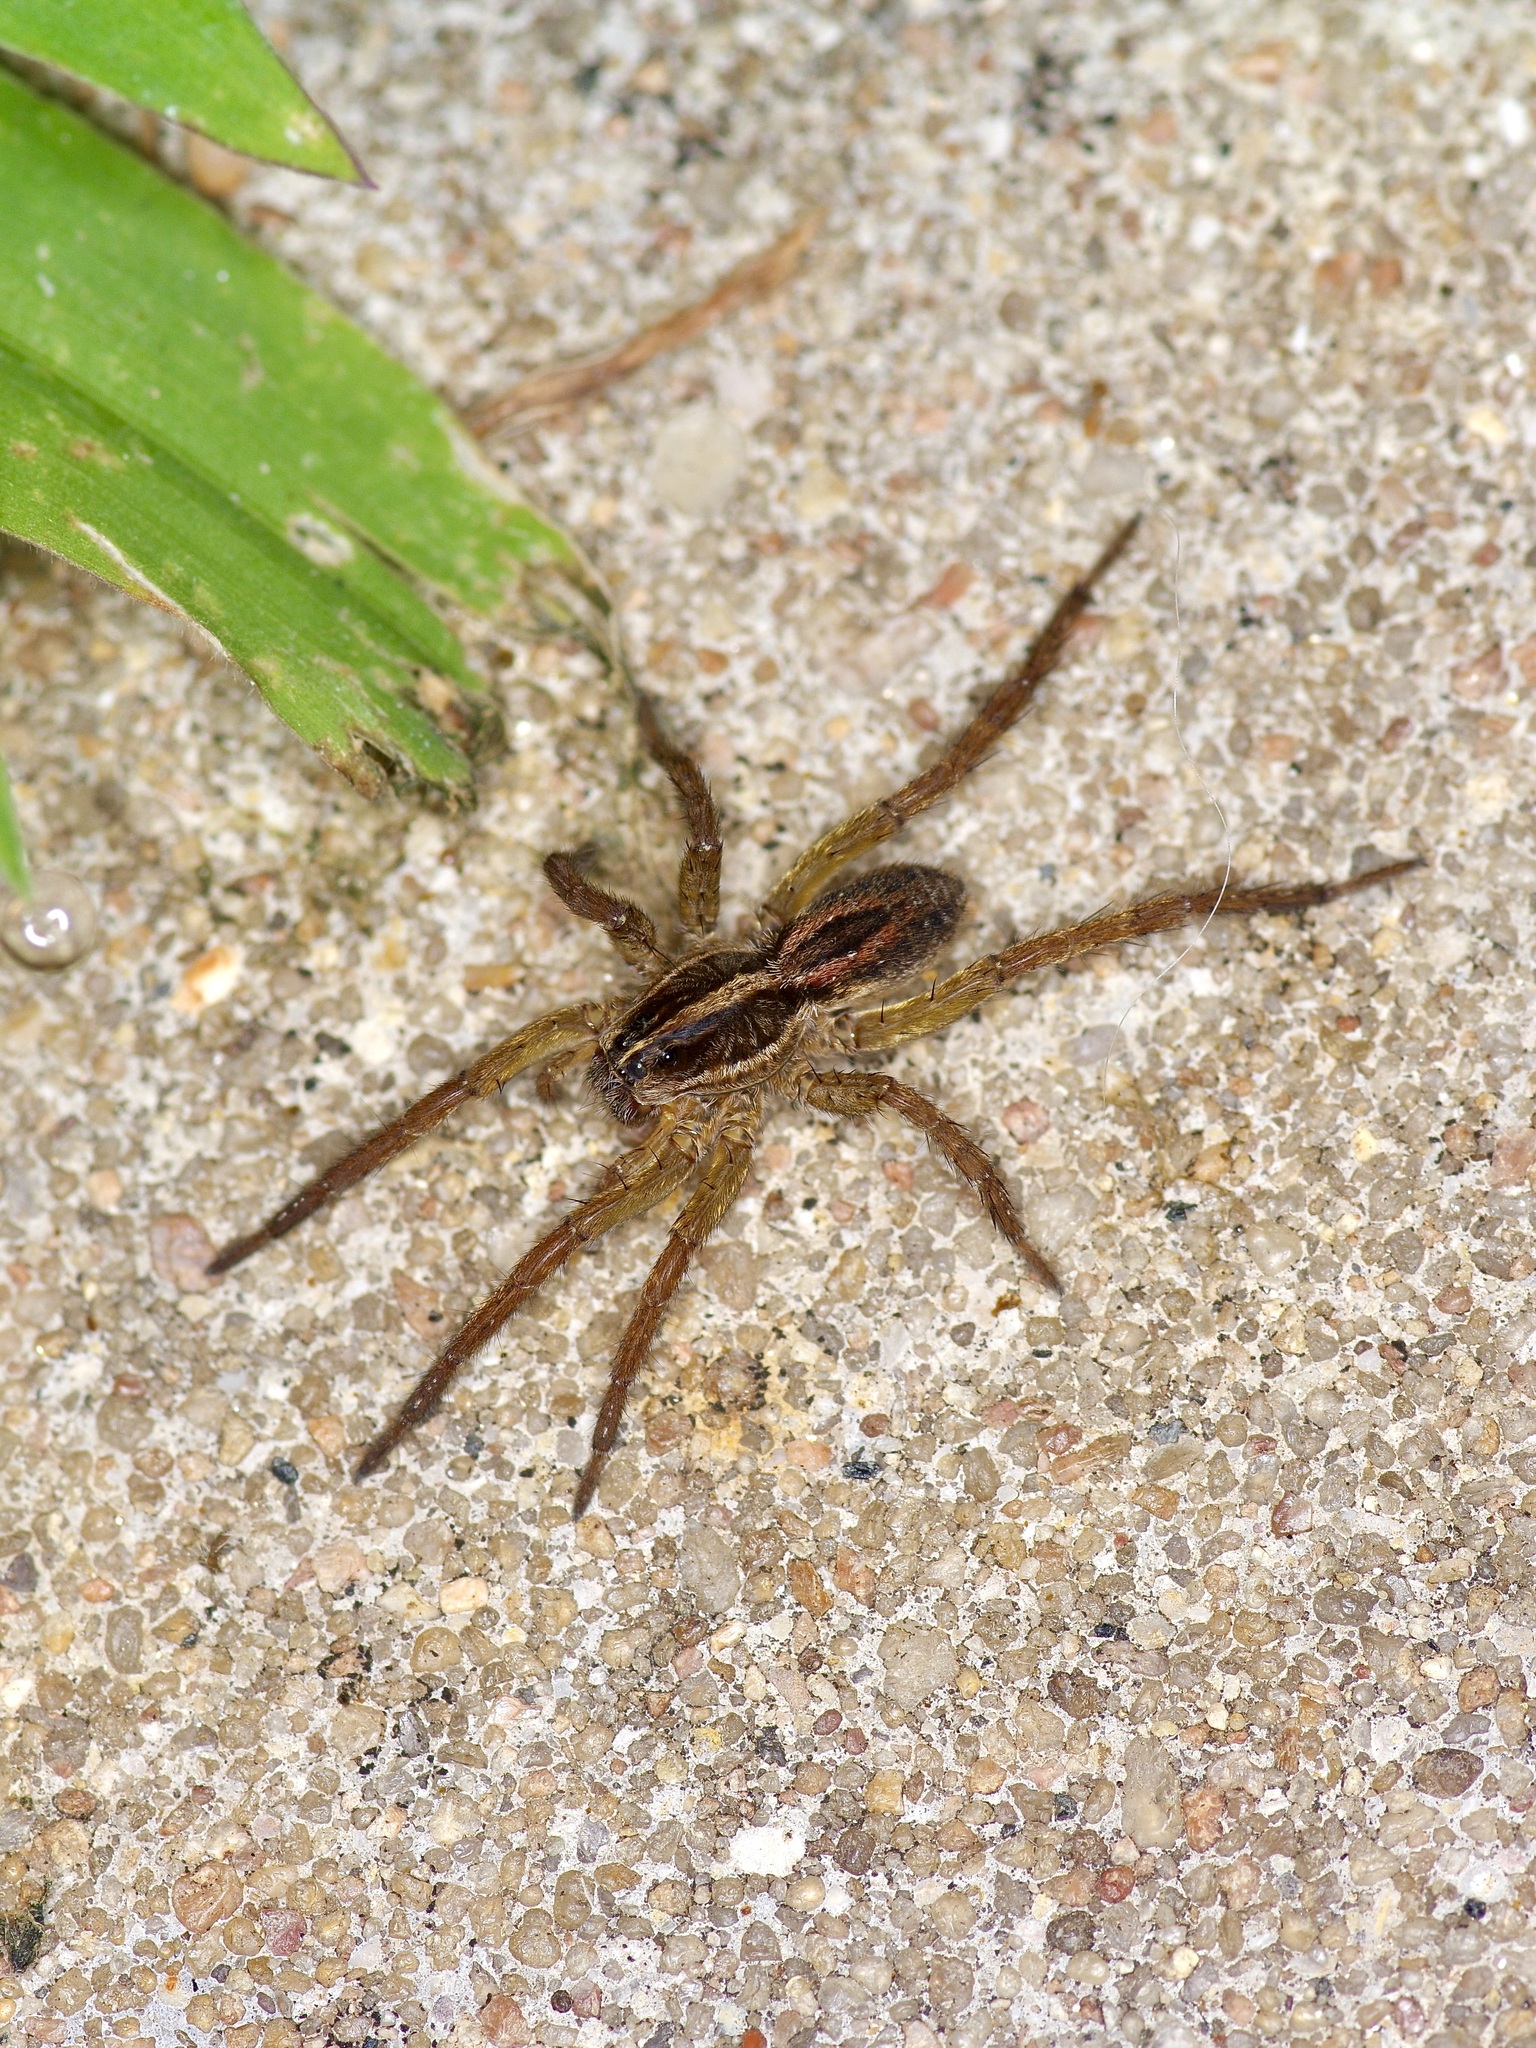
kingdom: Animalia
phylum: Arthropoda
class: Arachnida
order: Araneae
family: Lycosidae
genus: Tigrosa
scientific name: Tigrosa annexa
